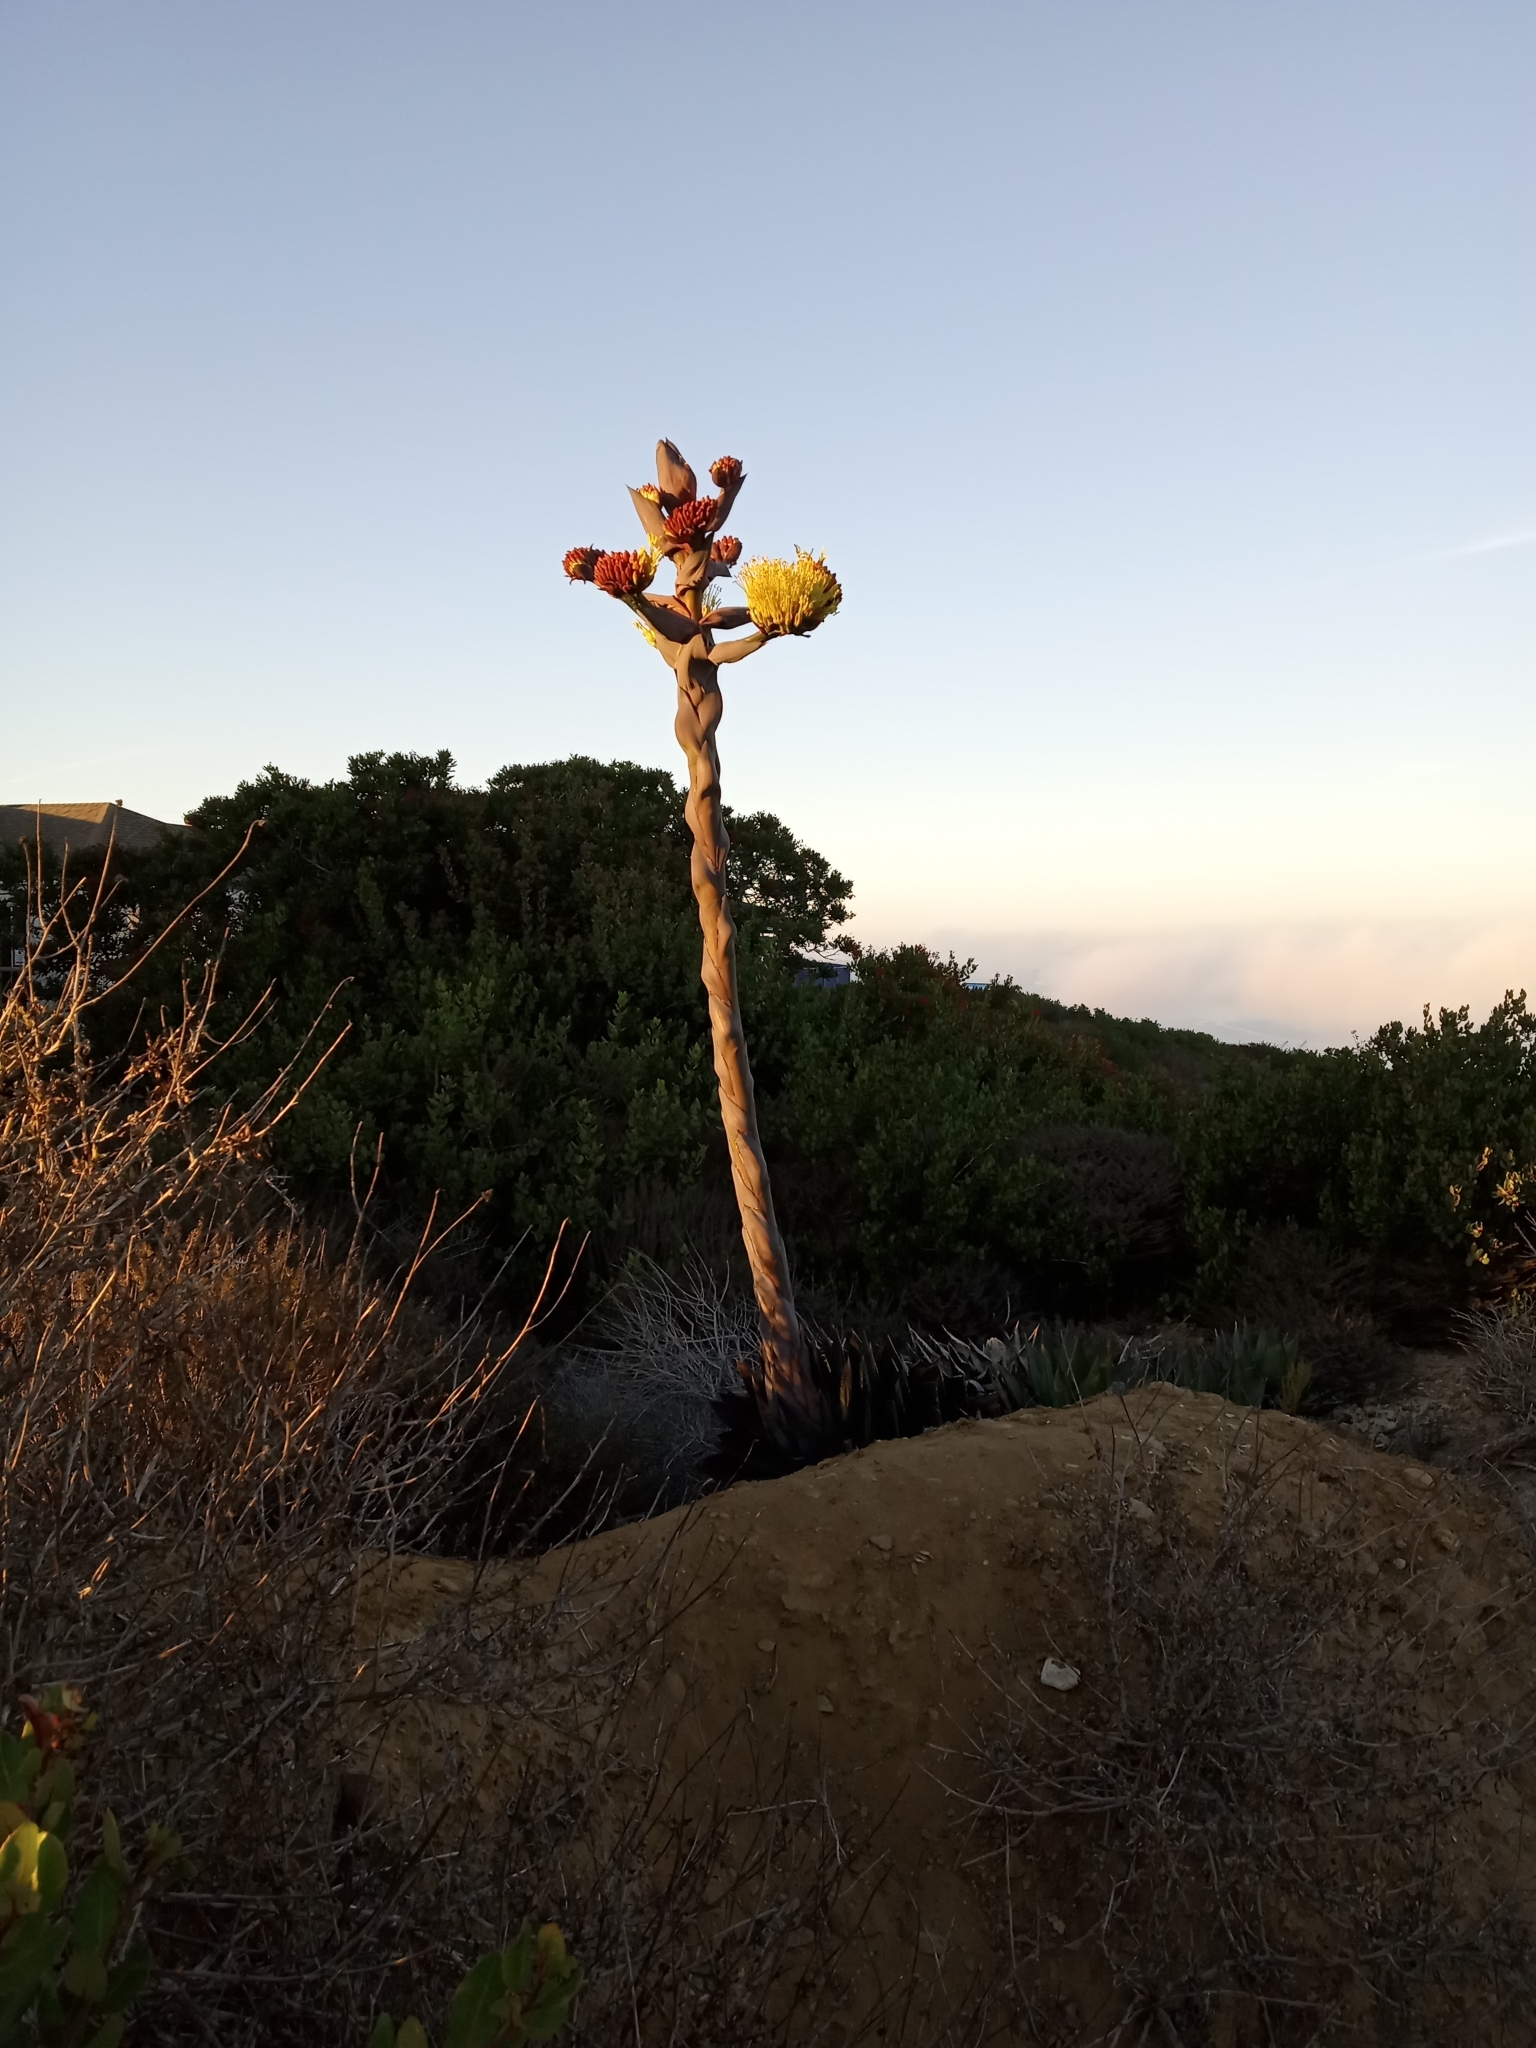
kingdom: Plantae
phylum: Tracheophyta
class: Liliopsida
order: Asparagales
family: Asparagaceae
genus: Agave
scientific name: Agave shawii
